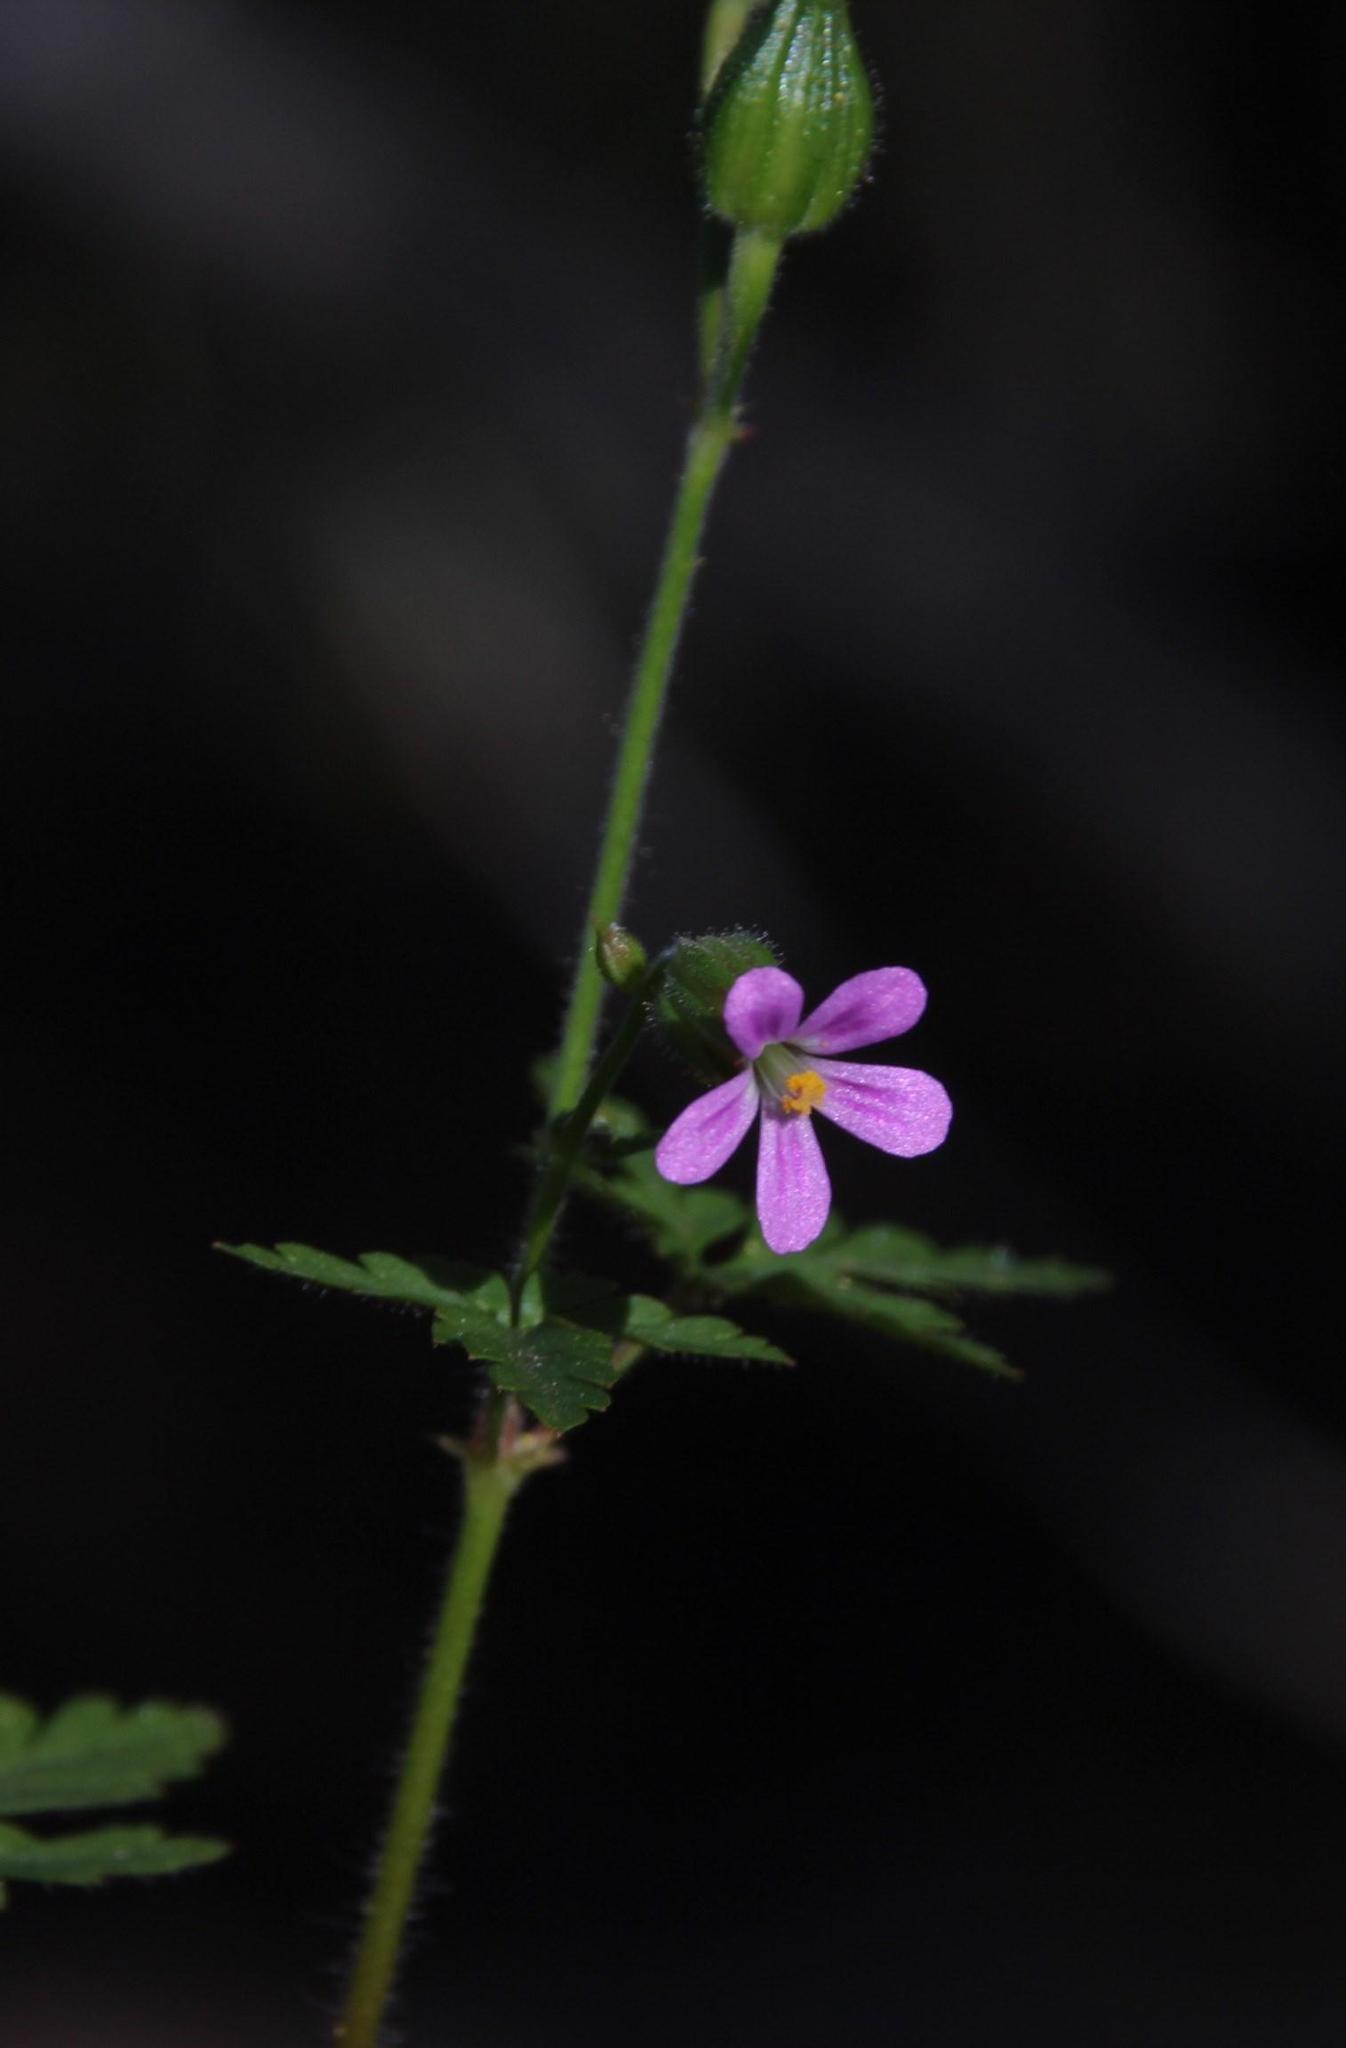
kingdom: Plantae
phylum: Tracheophyta
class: Magnoliopsida
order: Geraniales
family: Geraniaceae
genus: Geranium
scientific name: Geranium purpureum
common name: Little-robin
